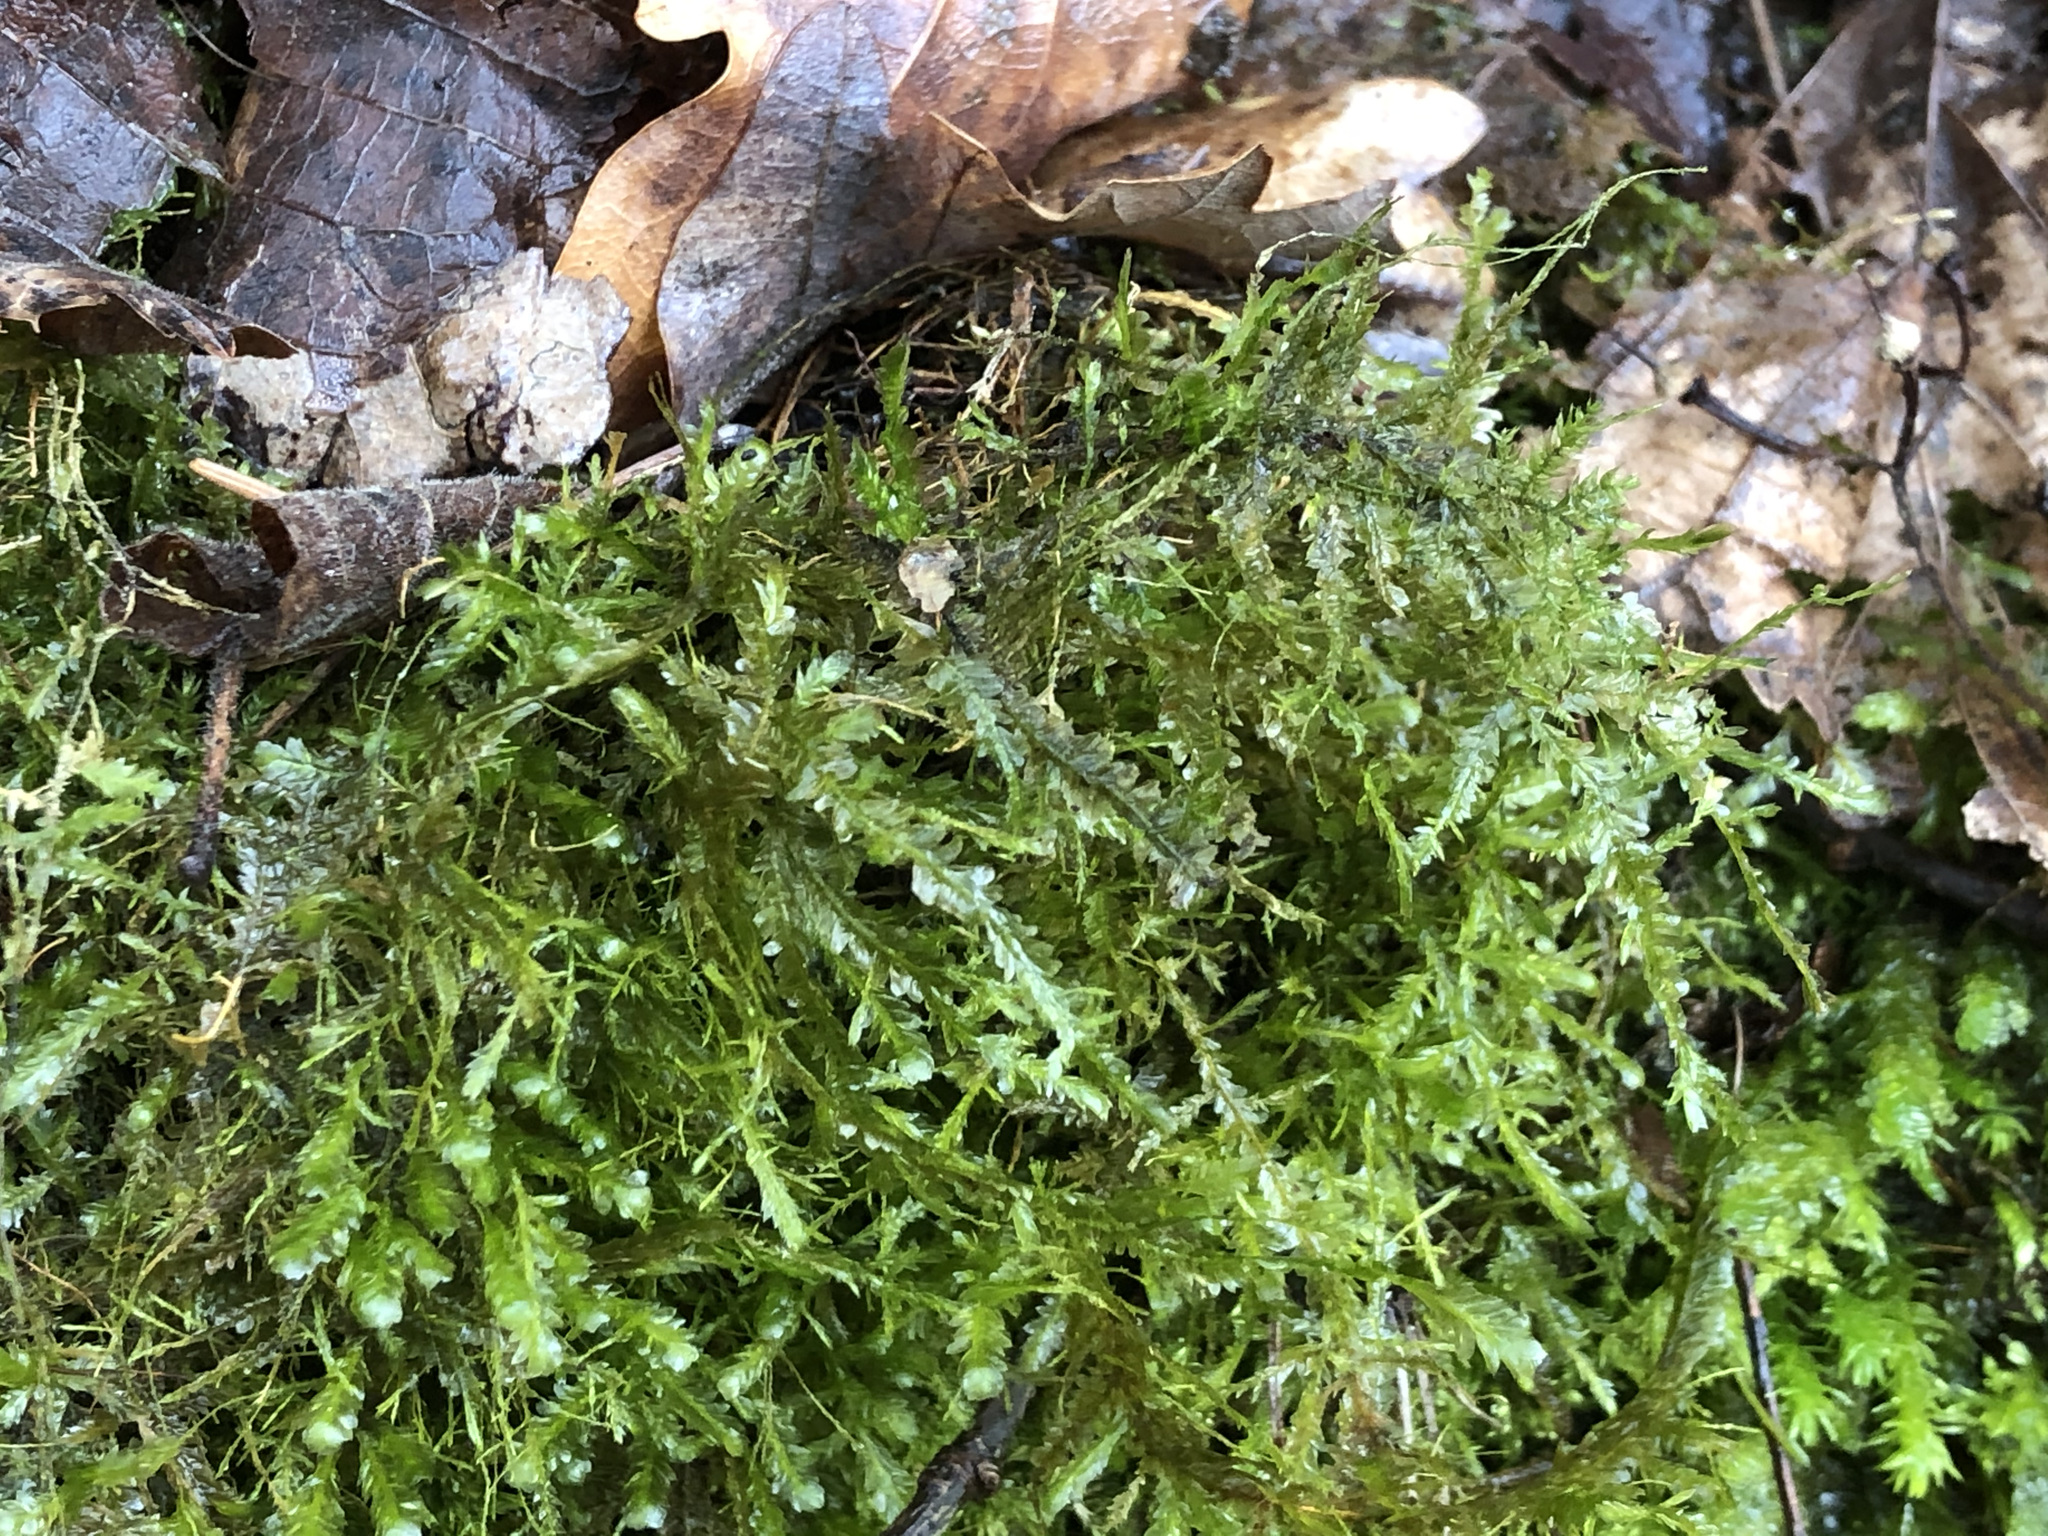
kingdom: Plantae
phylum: Bryophyta
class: Bryopsida
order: Hypnales
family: Neckeraceae
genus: Alleniella
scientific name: Alleniella complanata
